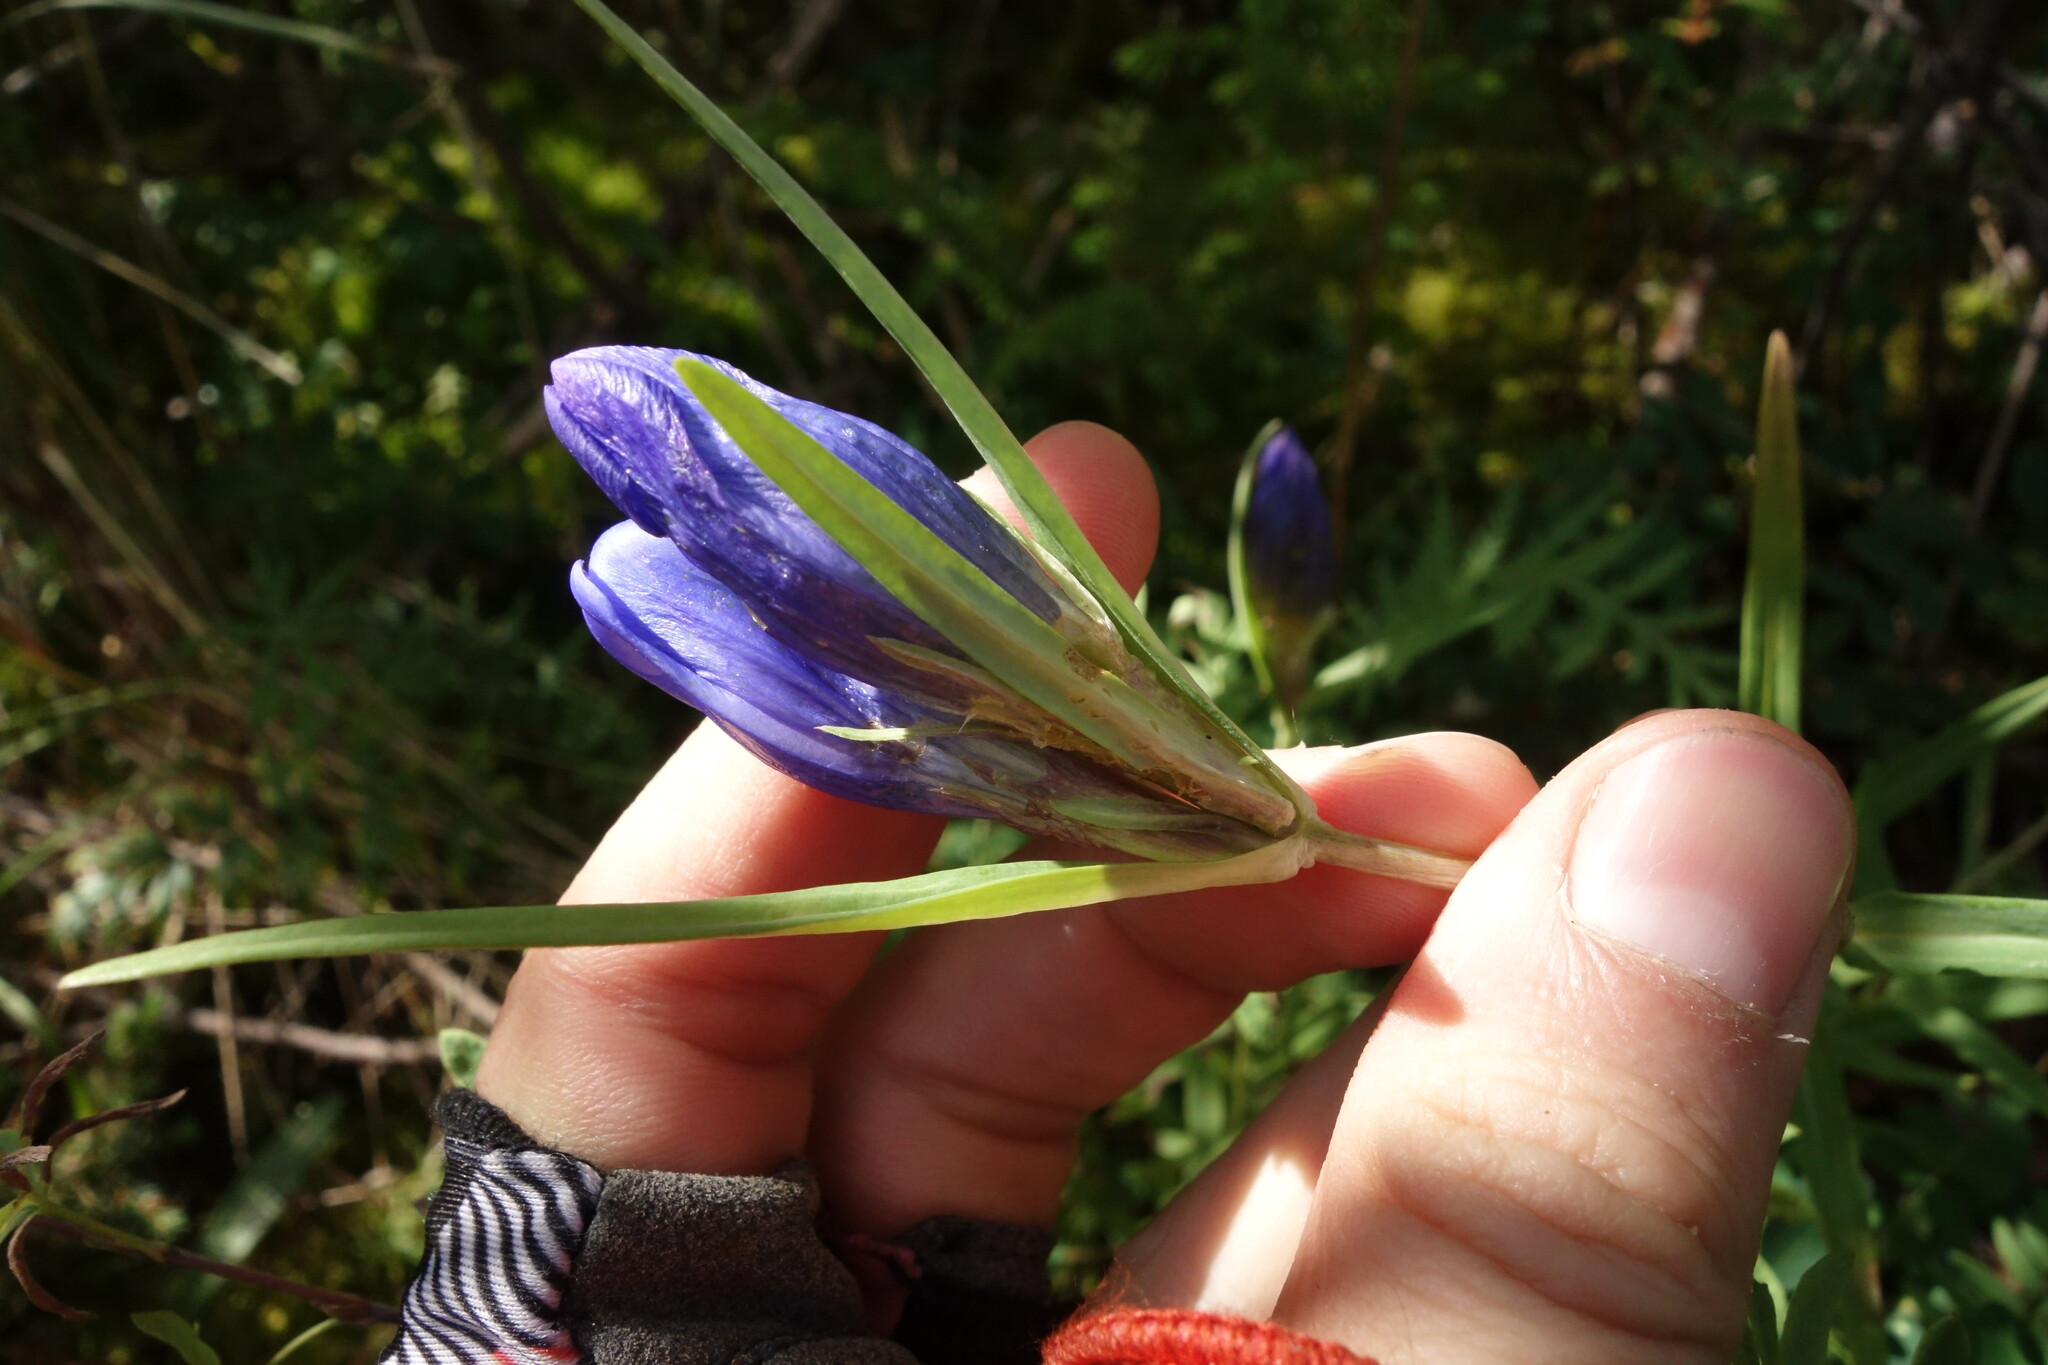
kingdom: Plantae
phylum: Tracheophyta
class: Magnoliopsida
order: Gentianales
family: Gentianaceae
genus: Gentiana
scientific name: Gentiana triflora
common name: Three-flower gentian
